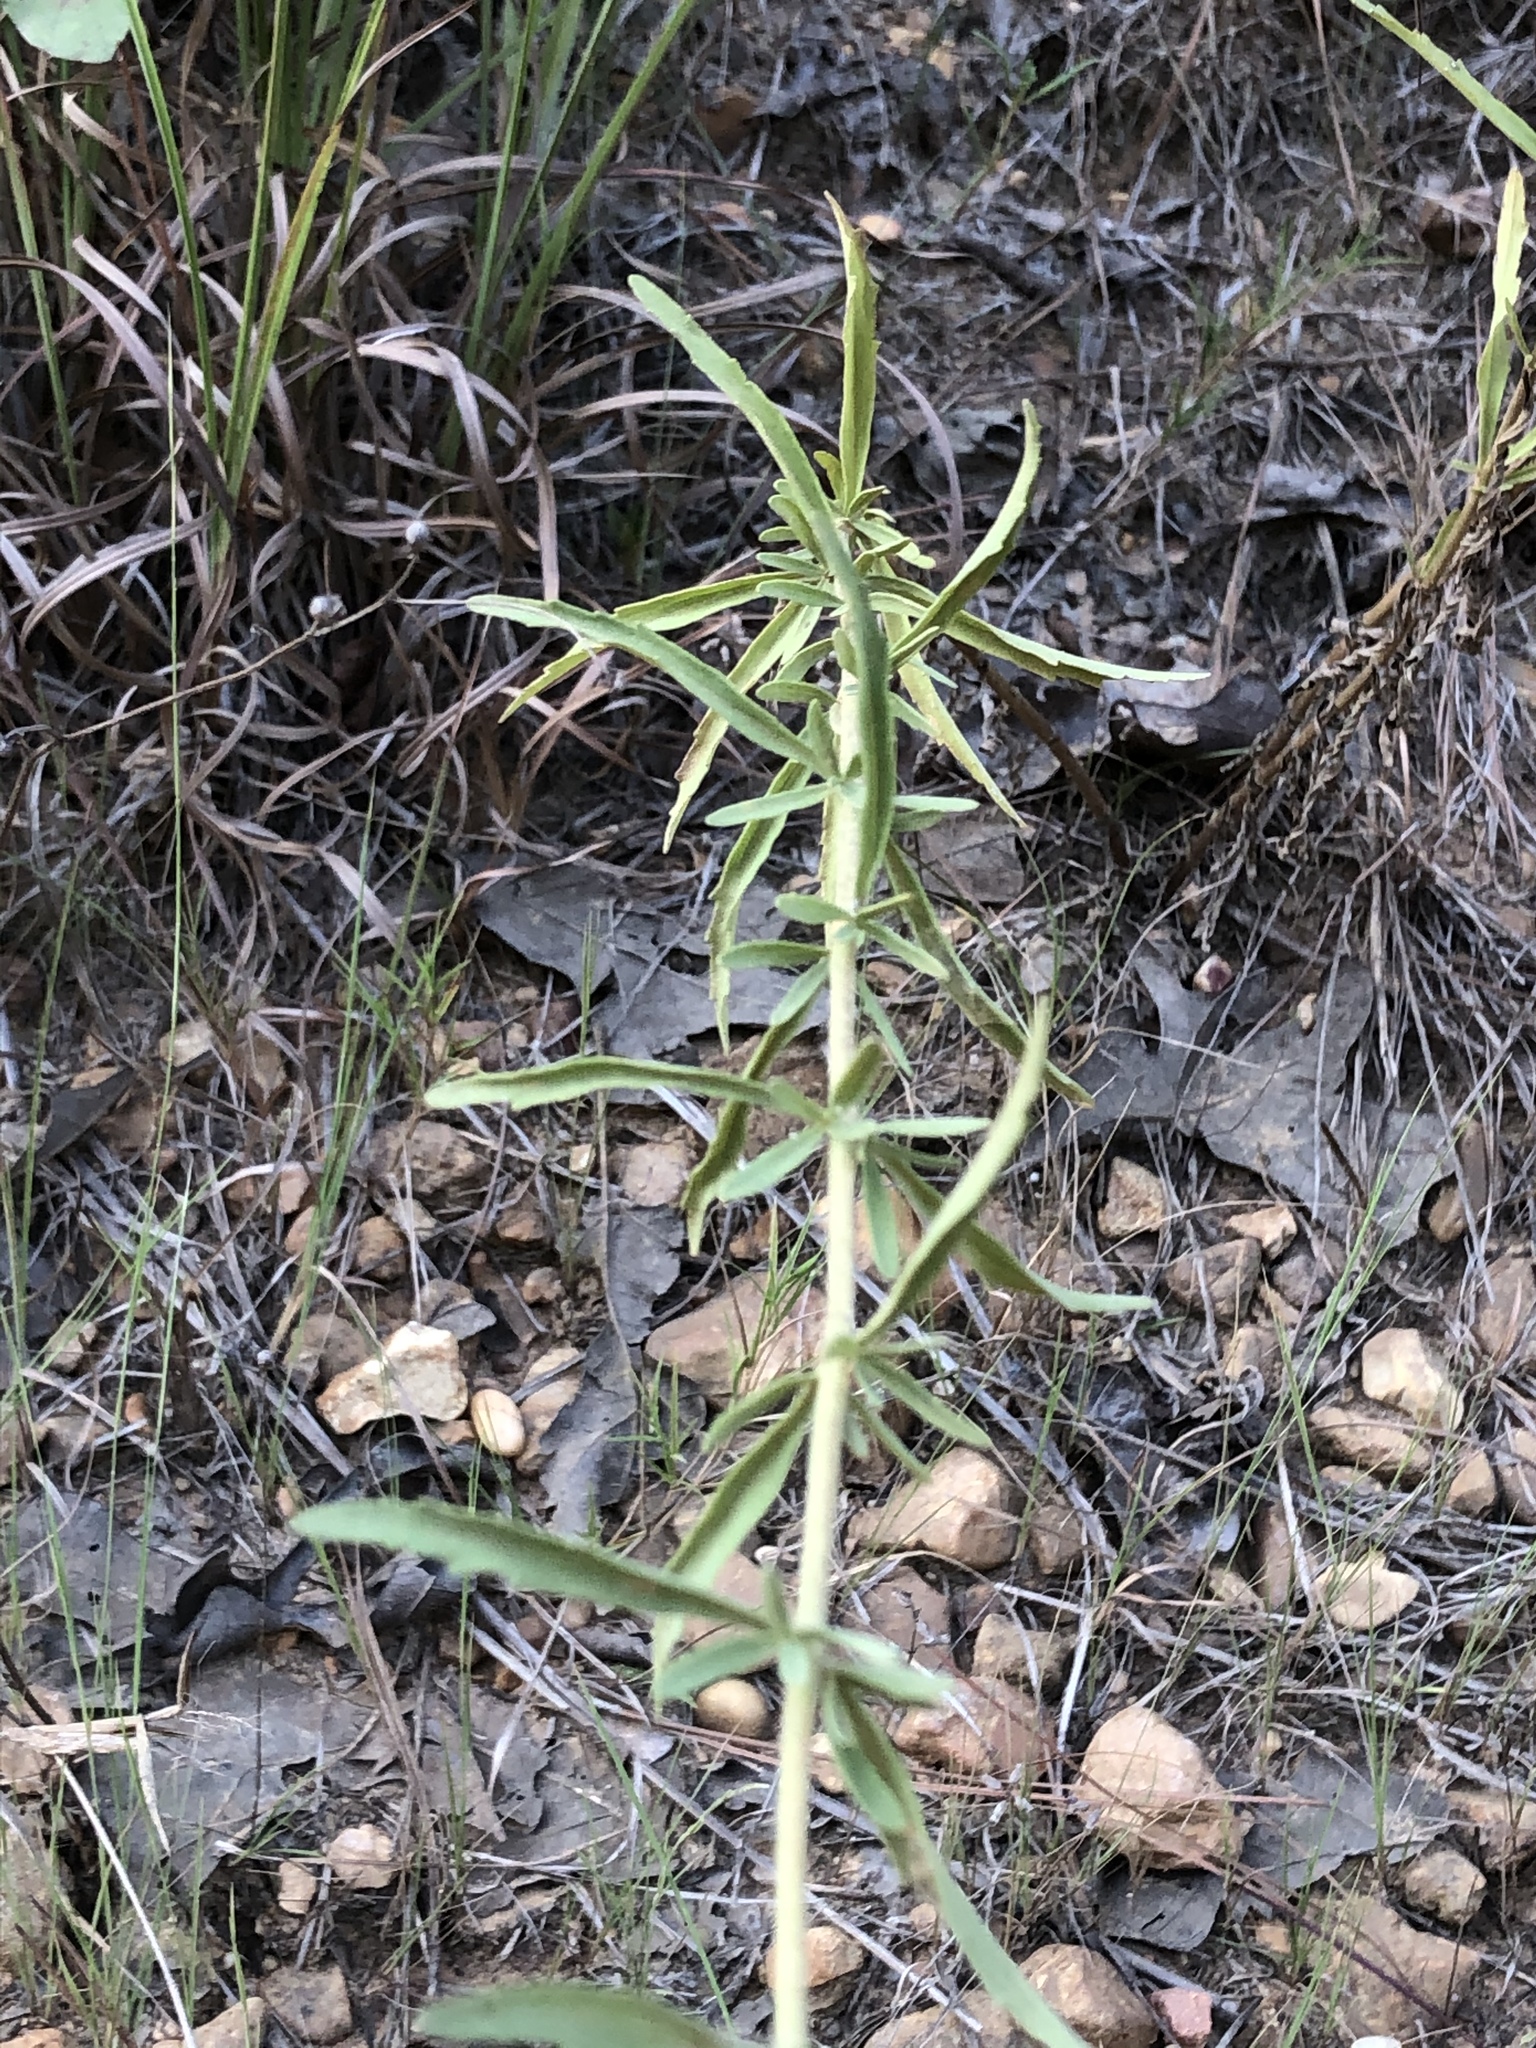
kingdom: Plantae
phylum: Tracheophyta
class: Magnoliopsida
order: Asterales
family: Asteraceae
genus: Eupatorium
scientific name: Eupatorium torreyanum
